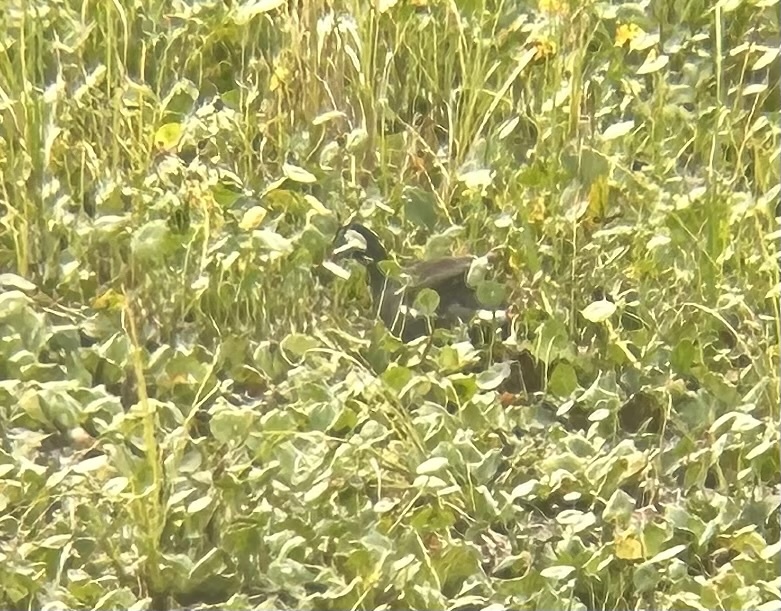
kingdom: Animalia
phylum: Chordata
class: Aves
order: Gruiformes
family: Rallidae
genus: Gallinula
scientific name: Gallinula chloropus
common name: Common moorhen
